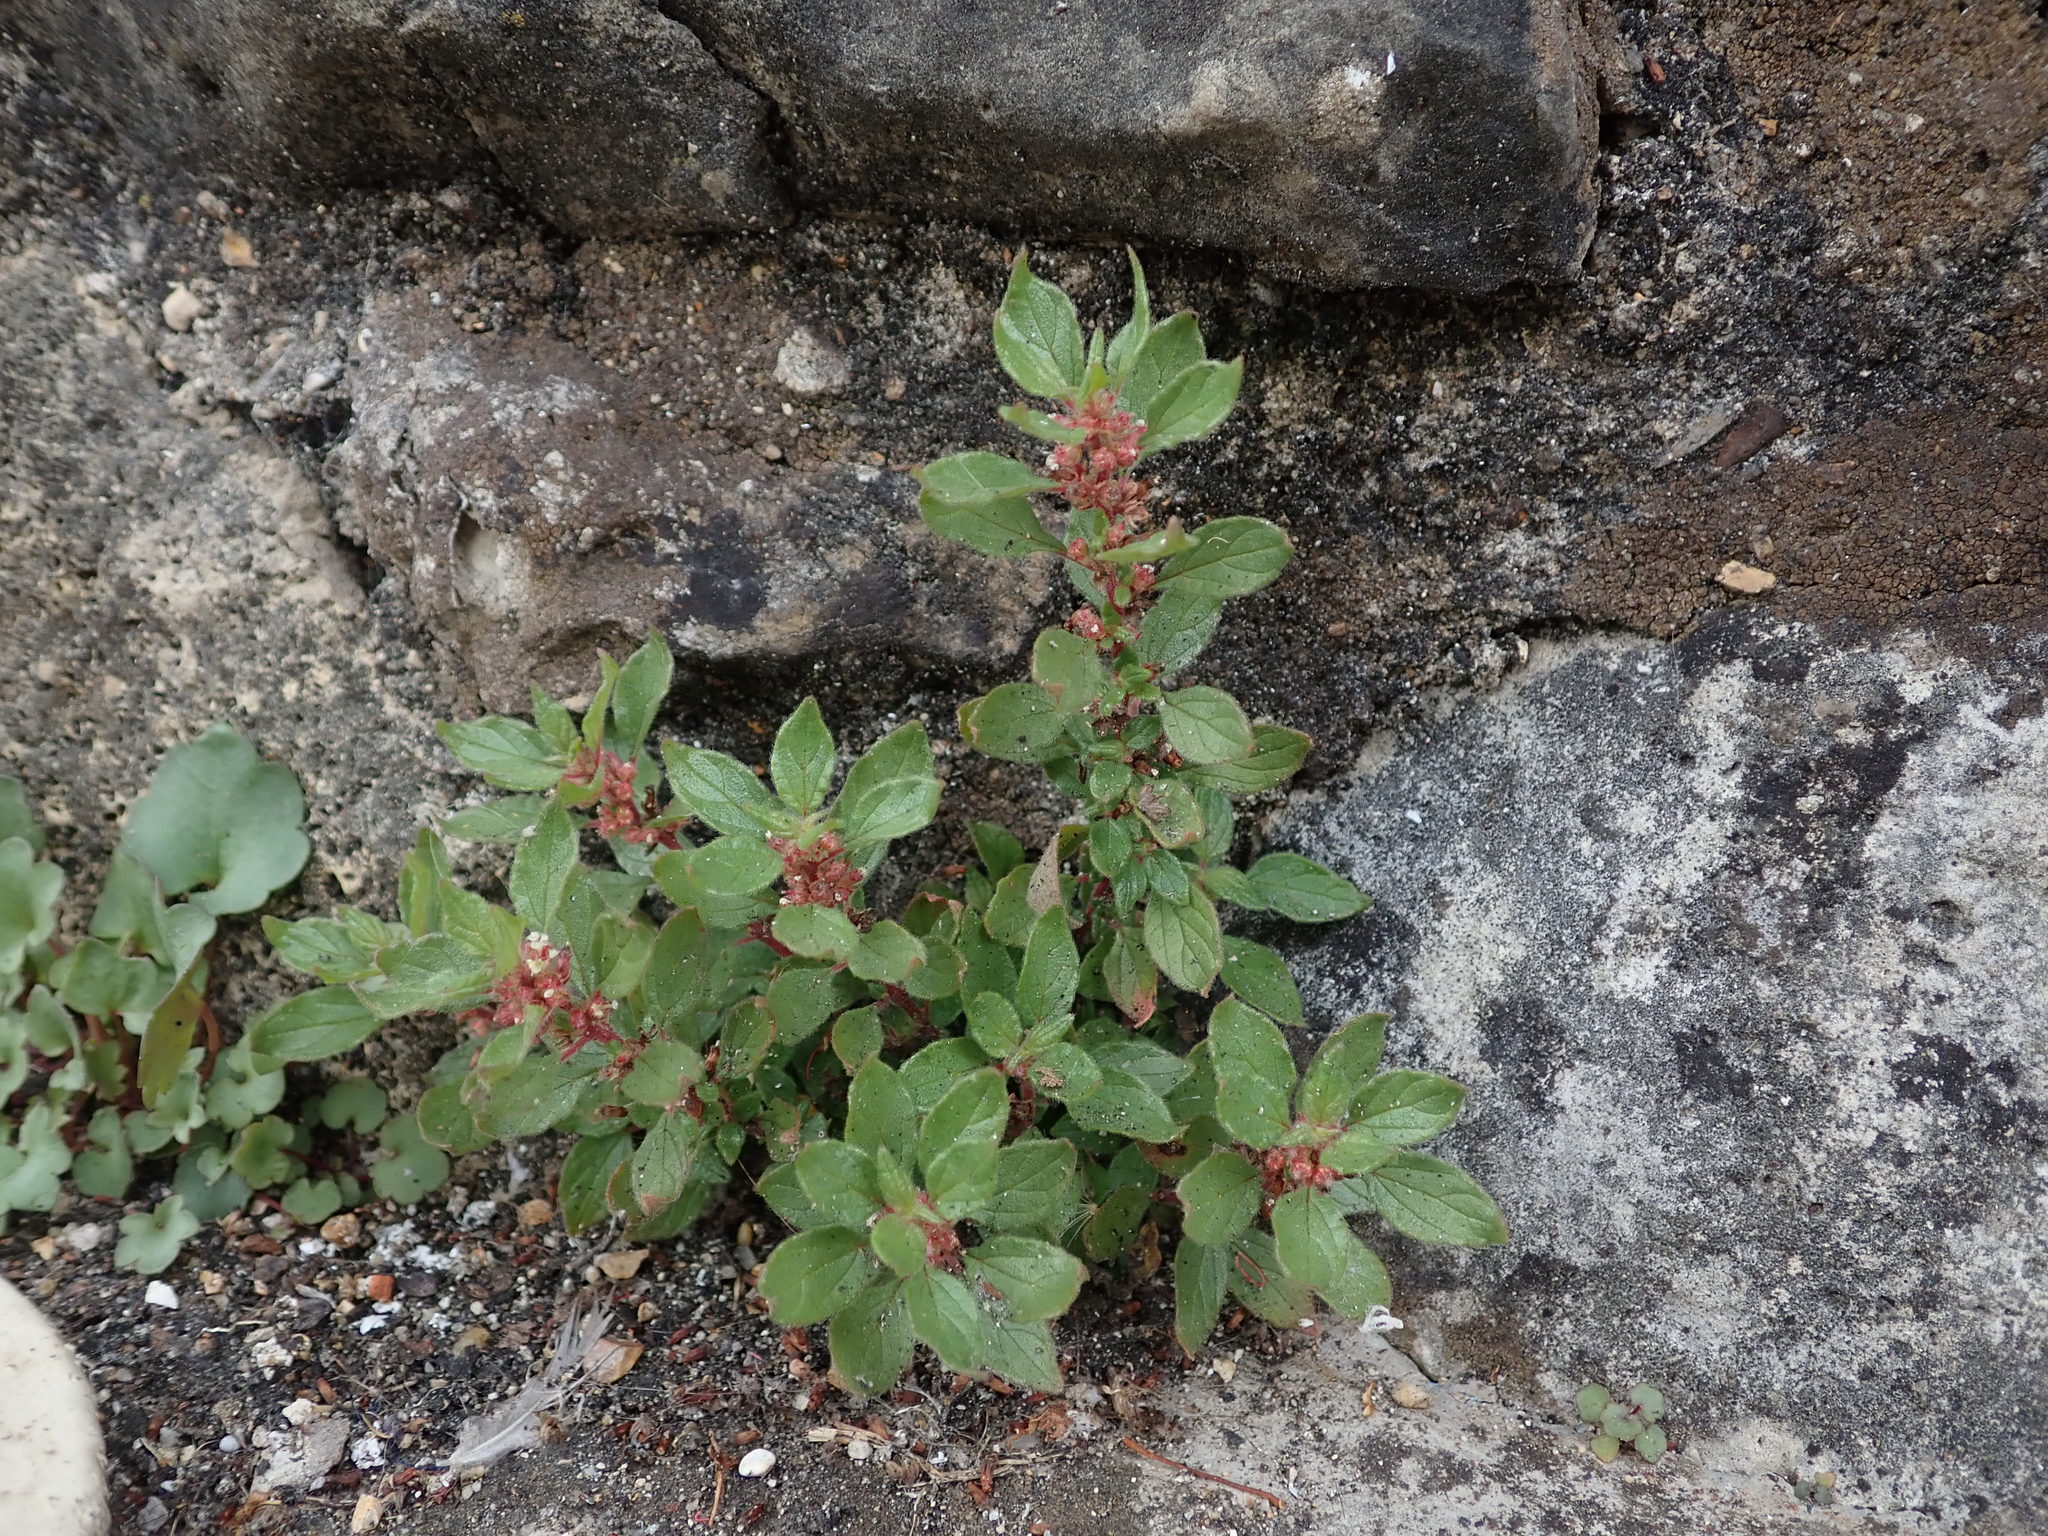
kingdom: Plantae
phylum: Tracheophyta
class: Magnoliopsida
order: Rosales
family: Urticaceae
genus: Parietaria
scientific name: Parietaria judaica
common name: Pellitory-of-the-wall
